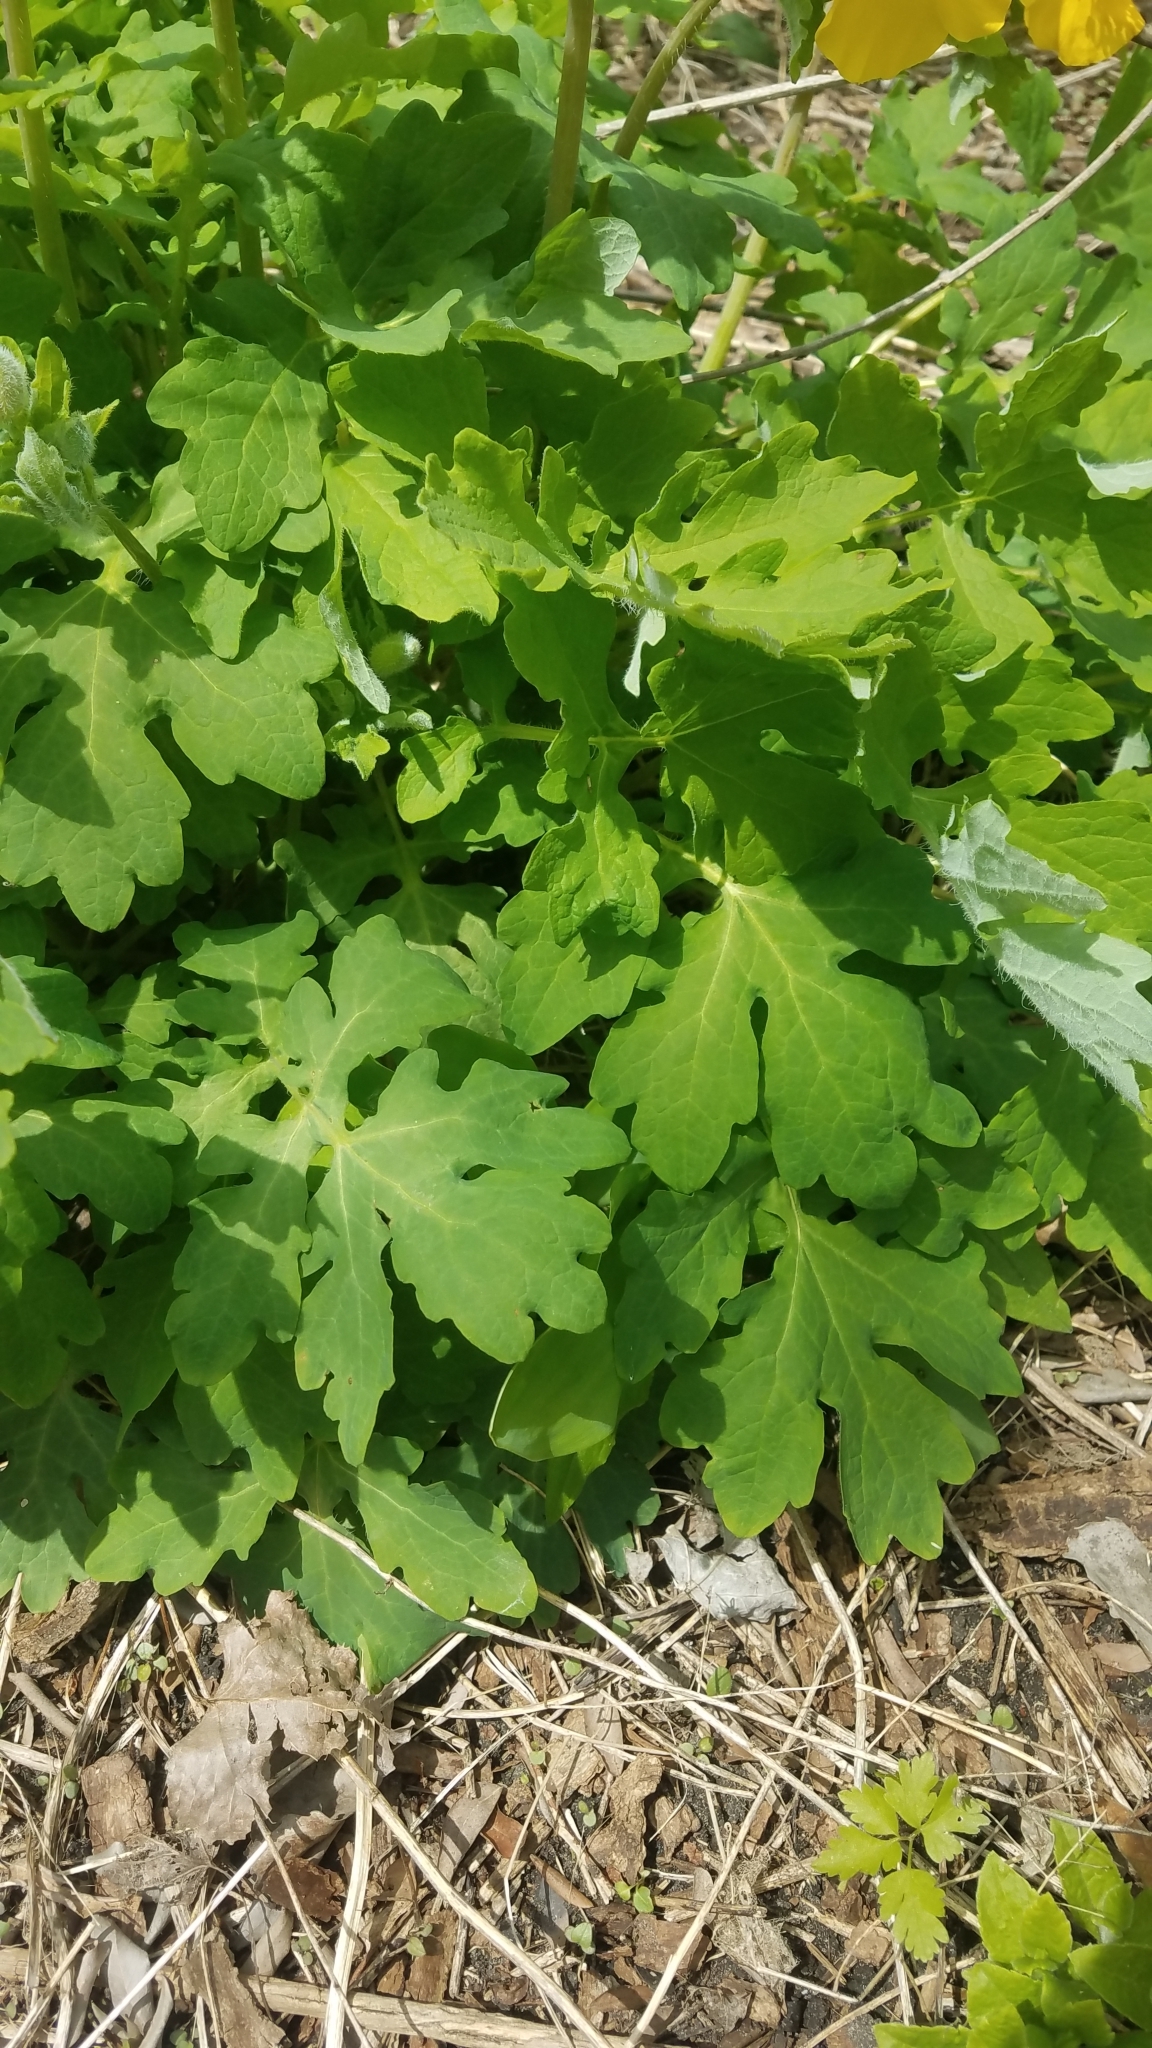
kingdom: Plantae
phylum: Tracheophyta
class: Magnoliopsida
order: Ranunculales
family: Papaveraceae
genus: Stylophorum
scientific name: Stylophorum diphyllum
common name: Celandine poppy
